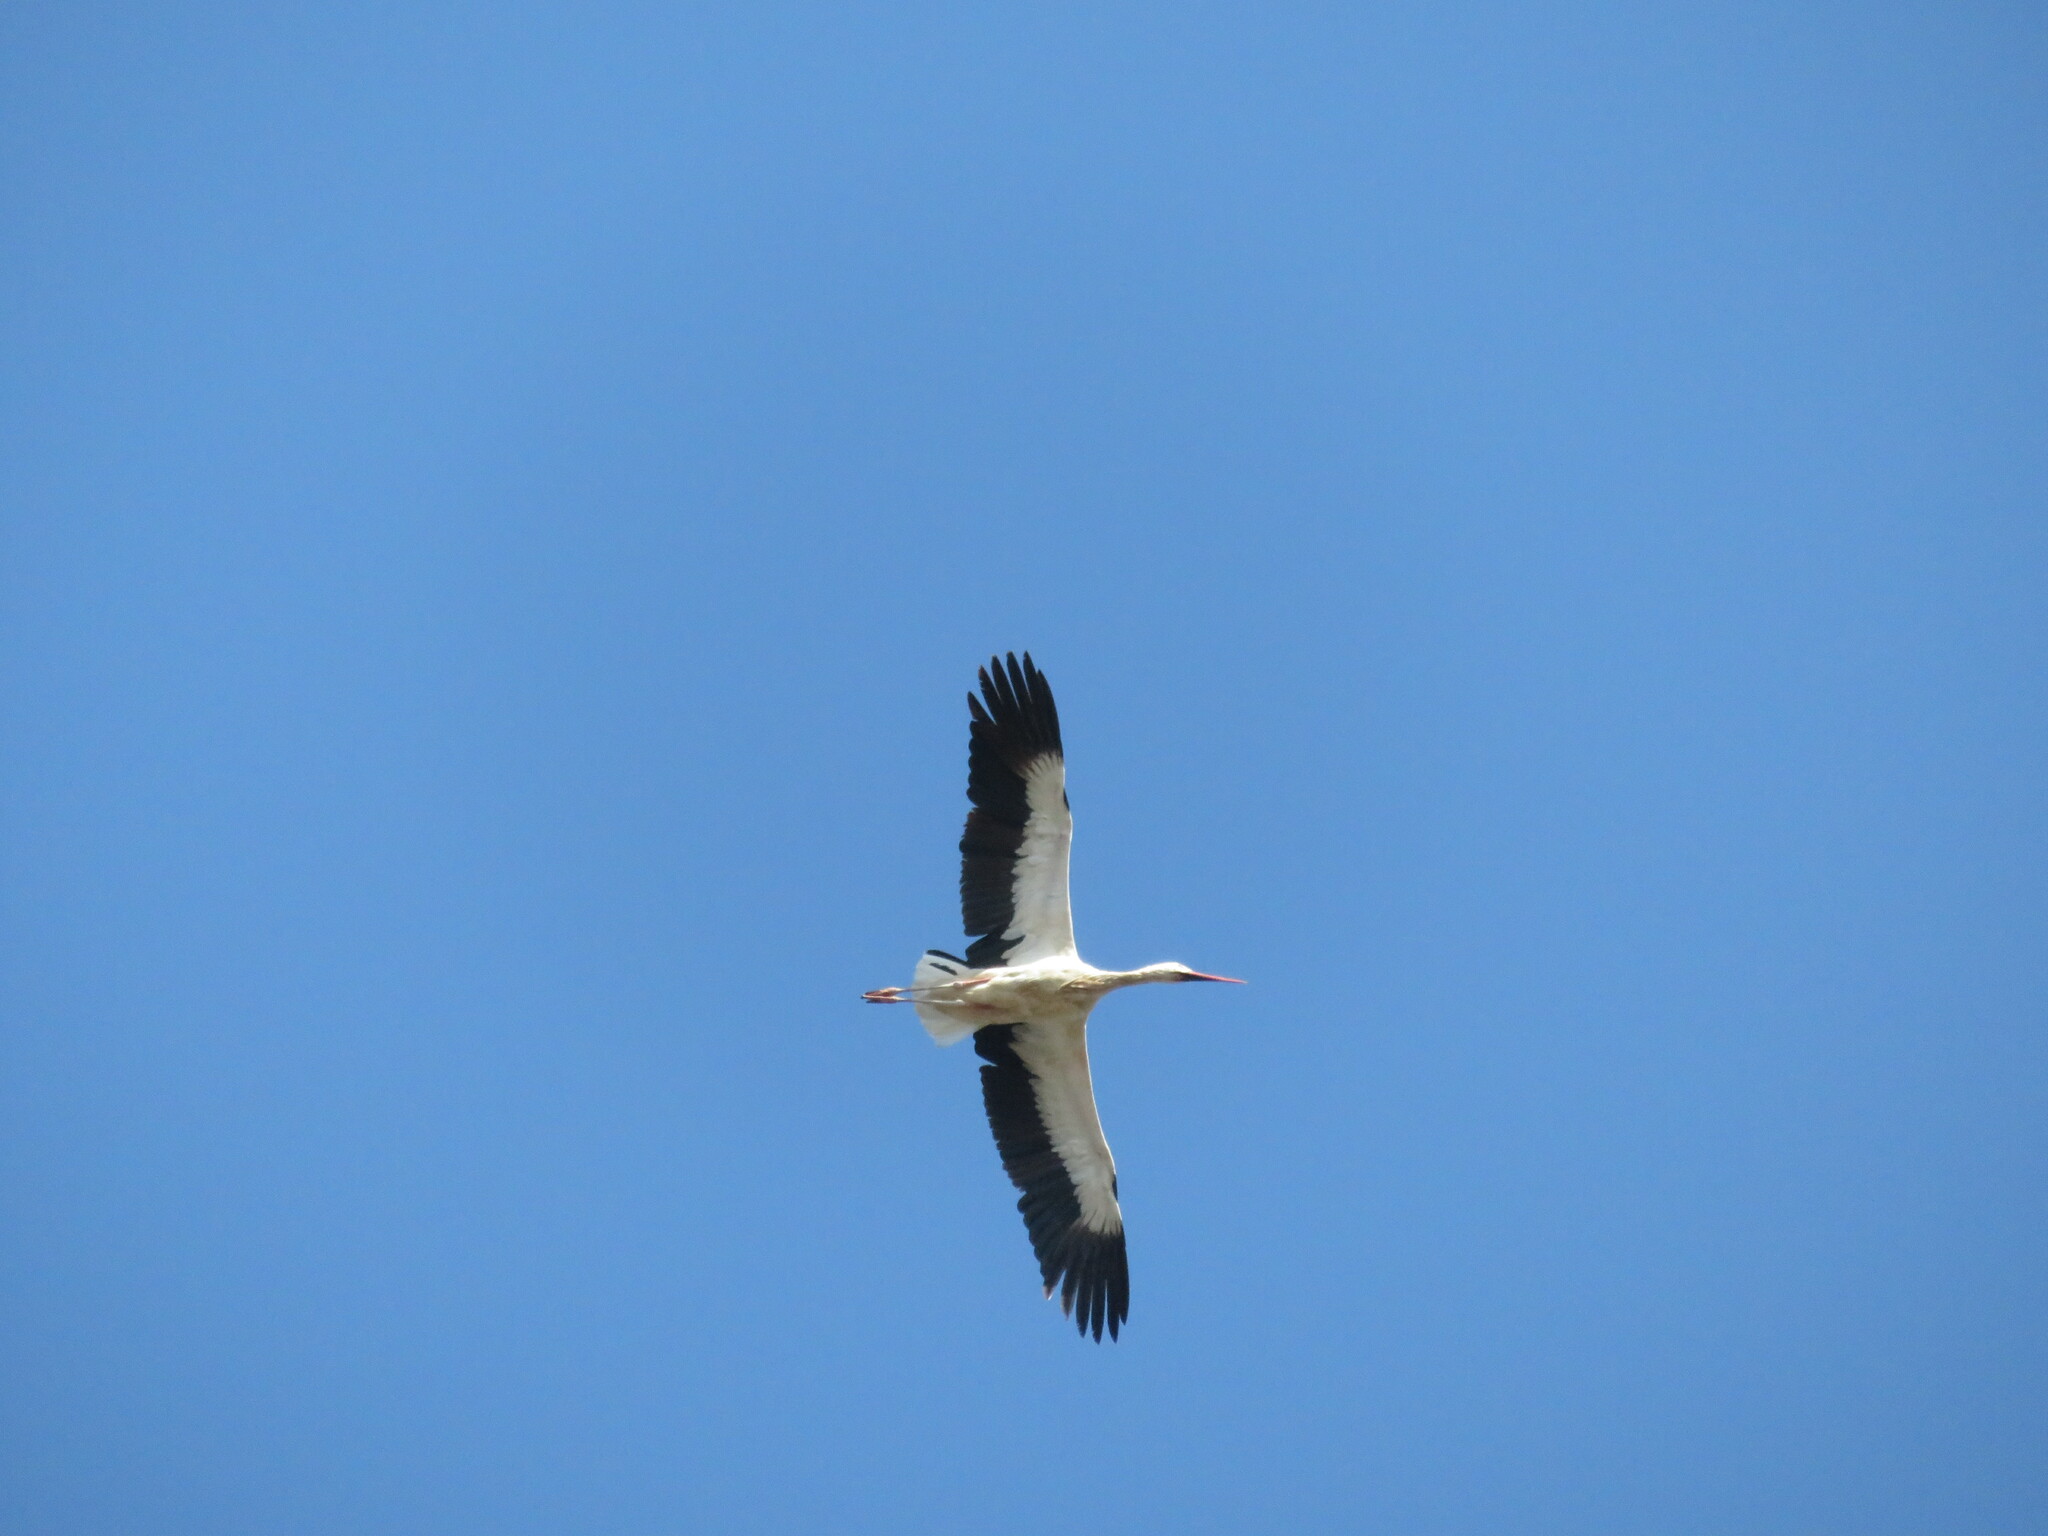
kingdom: Animalia
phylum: Chordata
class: Aves
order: Ciconiiformes
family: Ciconiidae
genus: Ciconia
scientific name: Ciconia ciconia
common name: White stork
